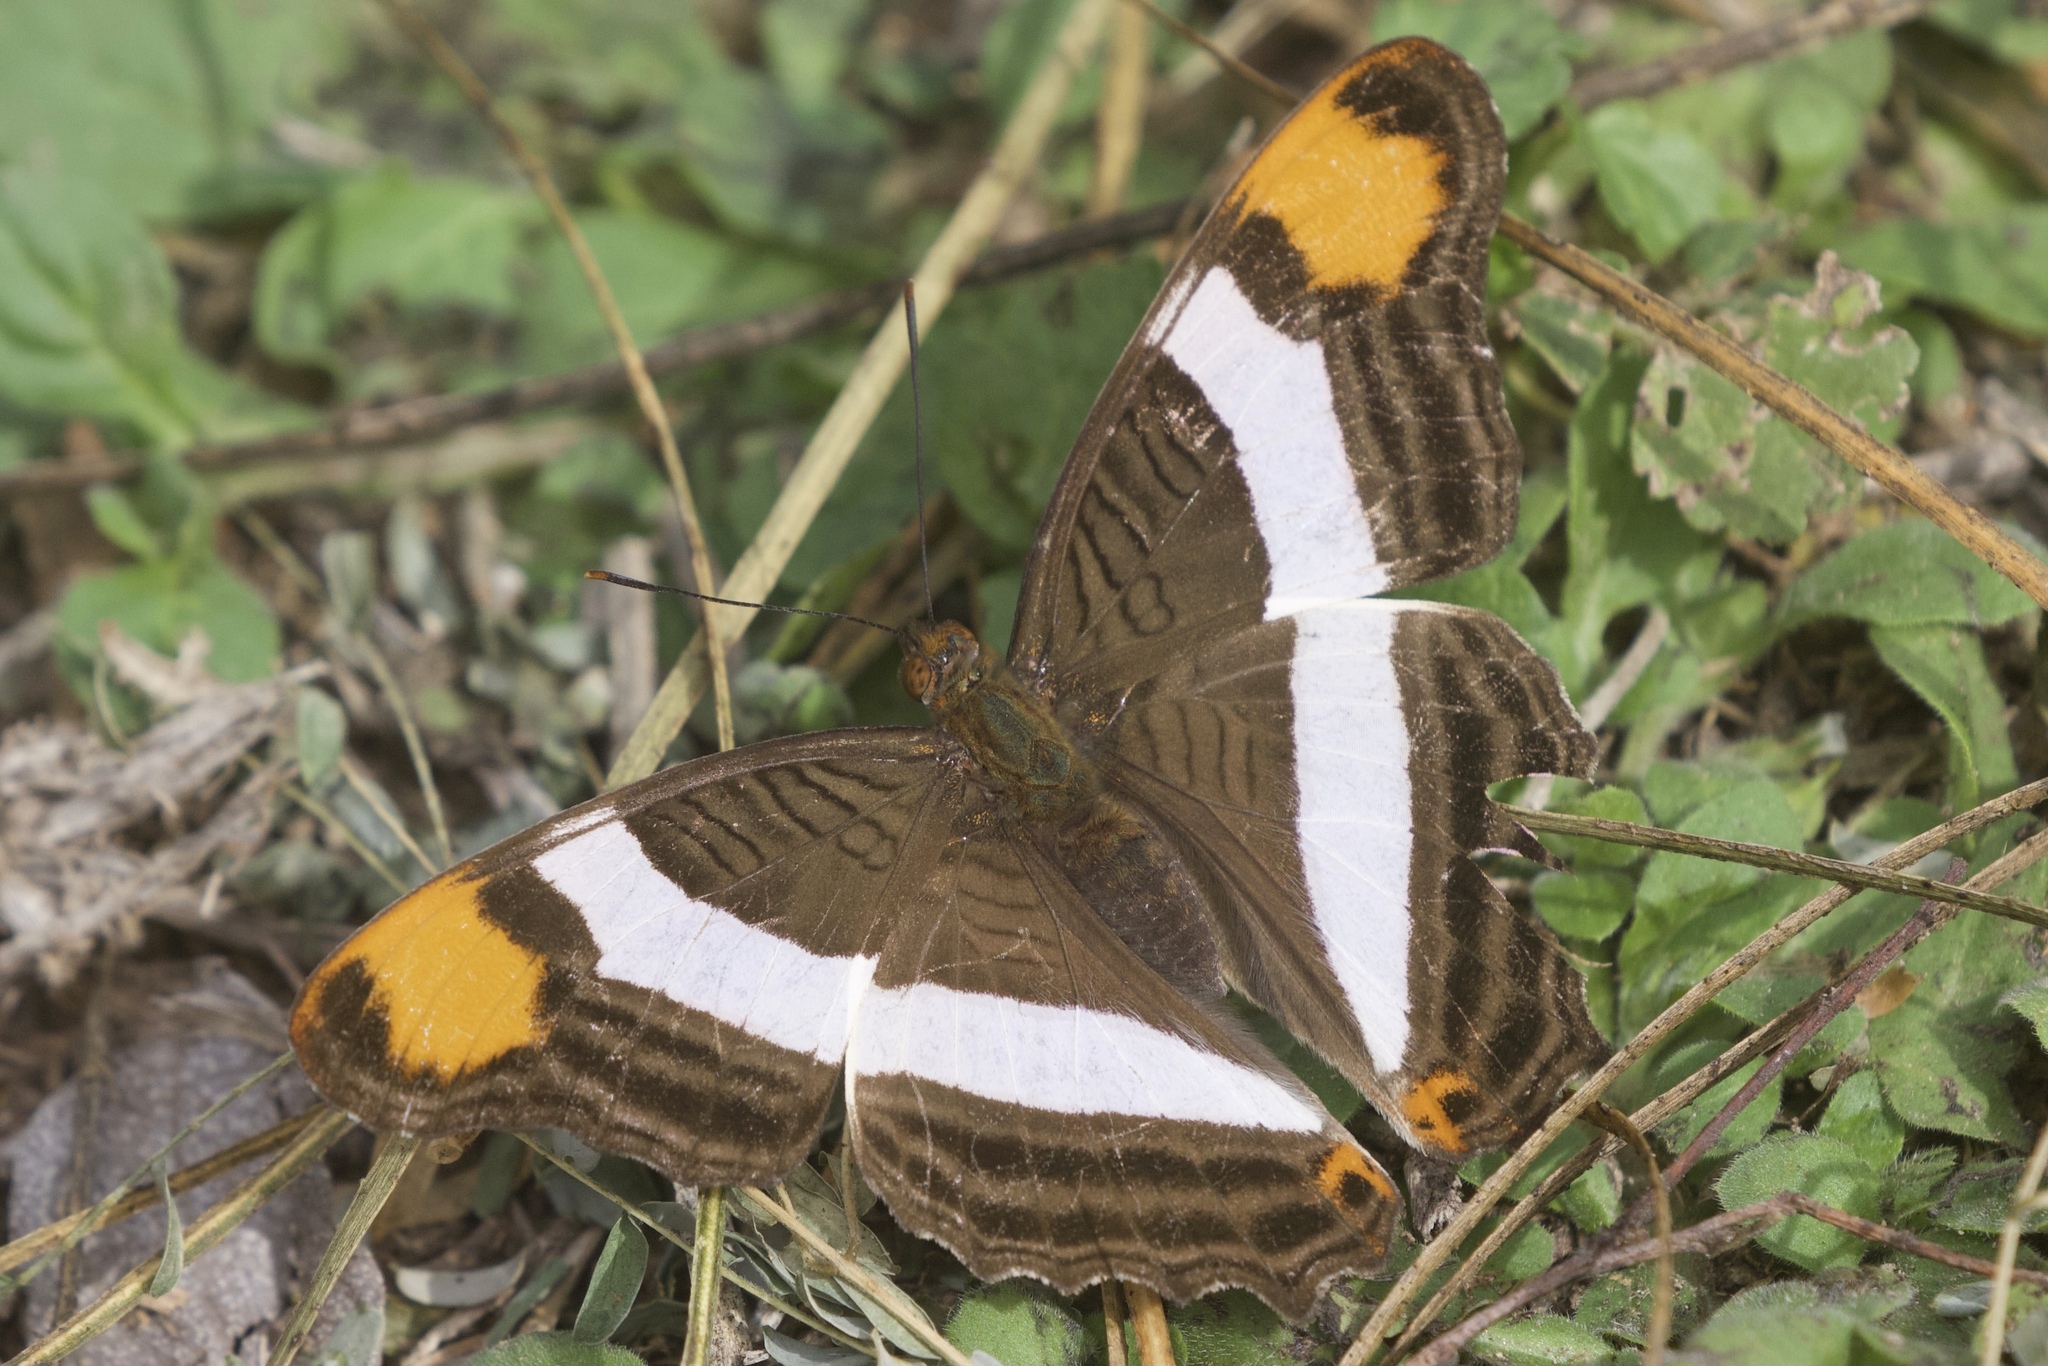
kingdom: Animalia
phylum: Arthropoda
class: Insecta
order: Lepidoptera
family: Nymphalidae
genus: Limenitis
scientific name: Limenitis fessonia
